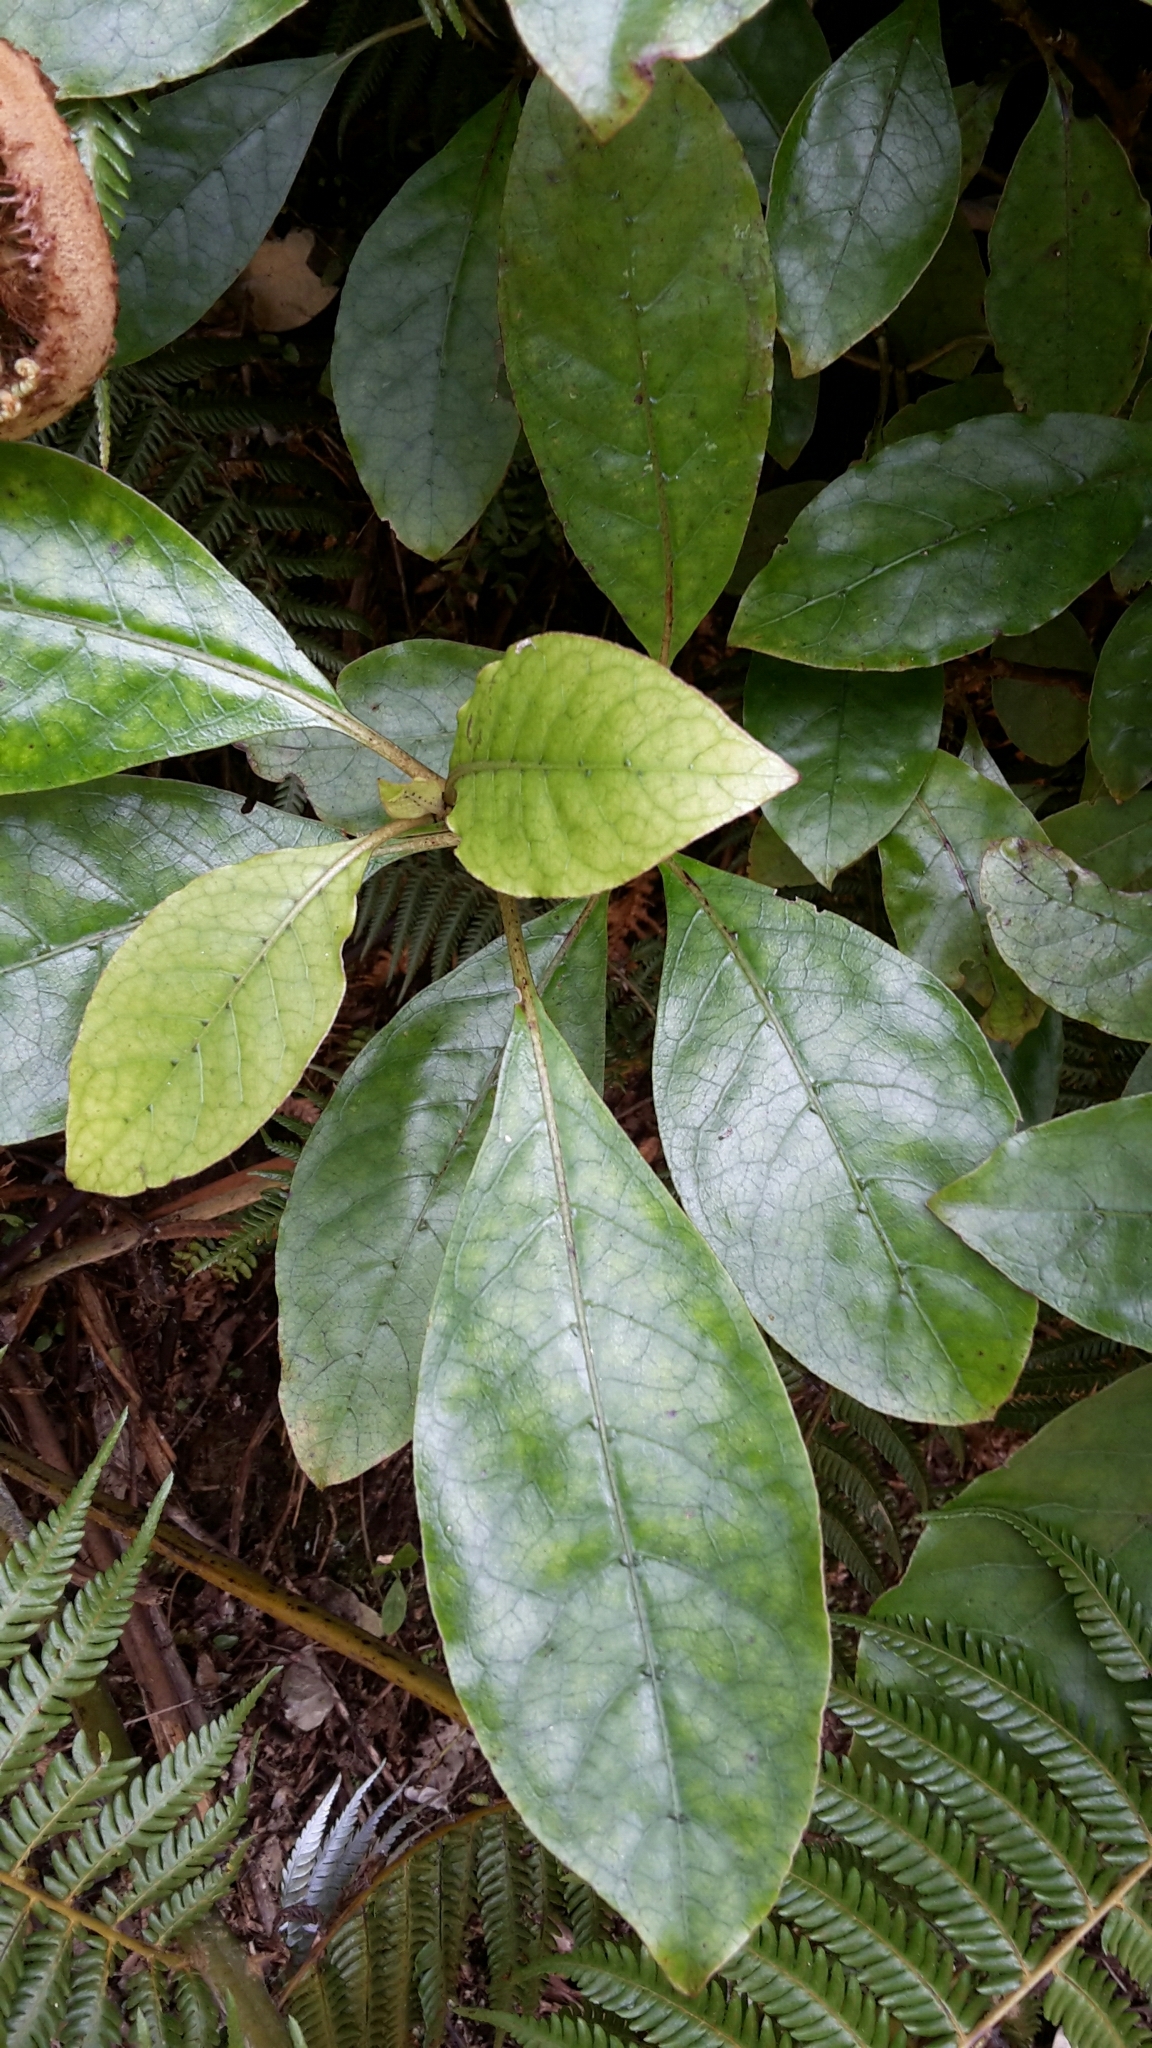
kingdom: Plantae
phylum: Tracheophyta
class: Magnoliopsida
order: Gentianales
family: Rubiaceae
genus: Coprosma
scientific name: Coprosma autumnalis
